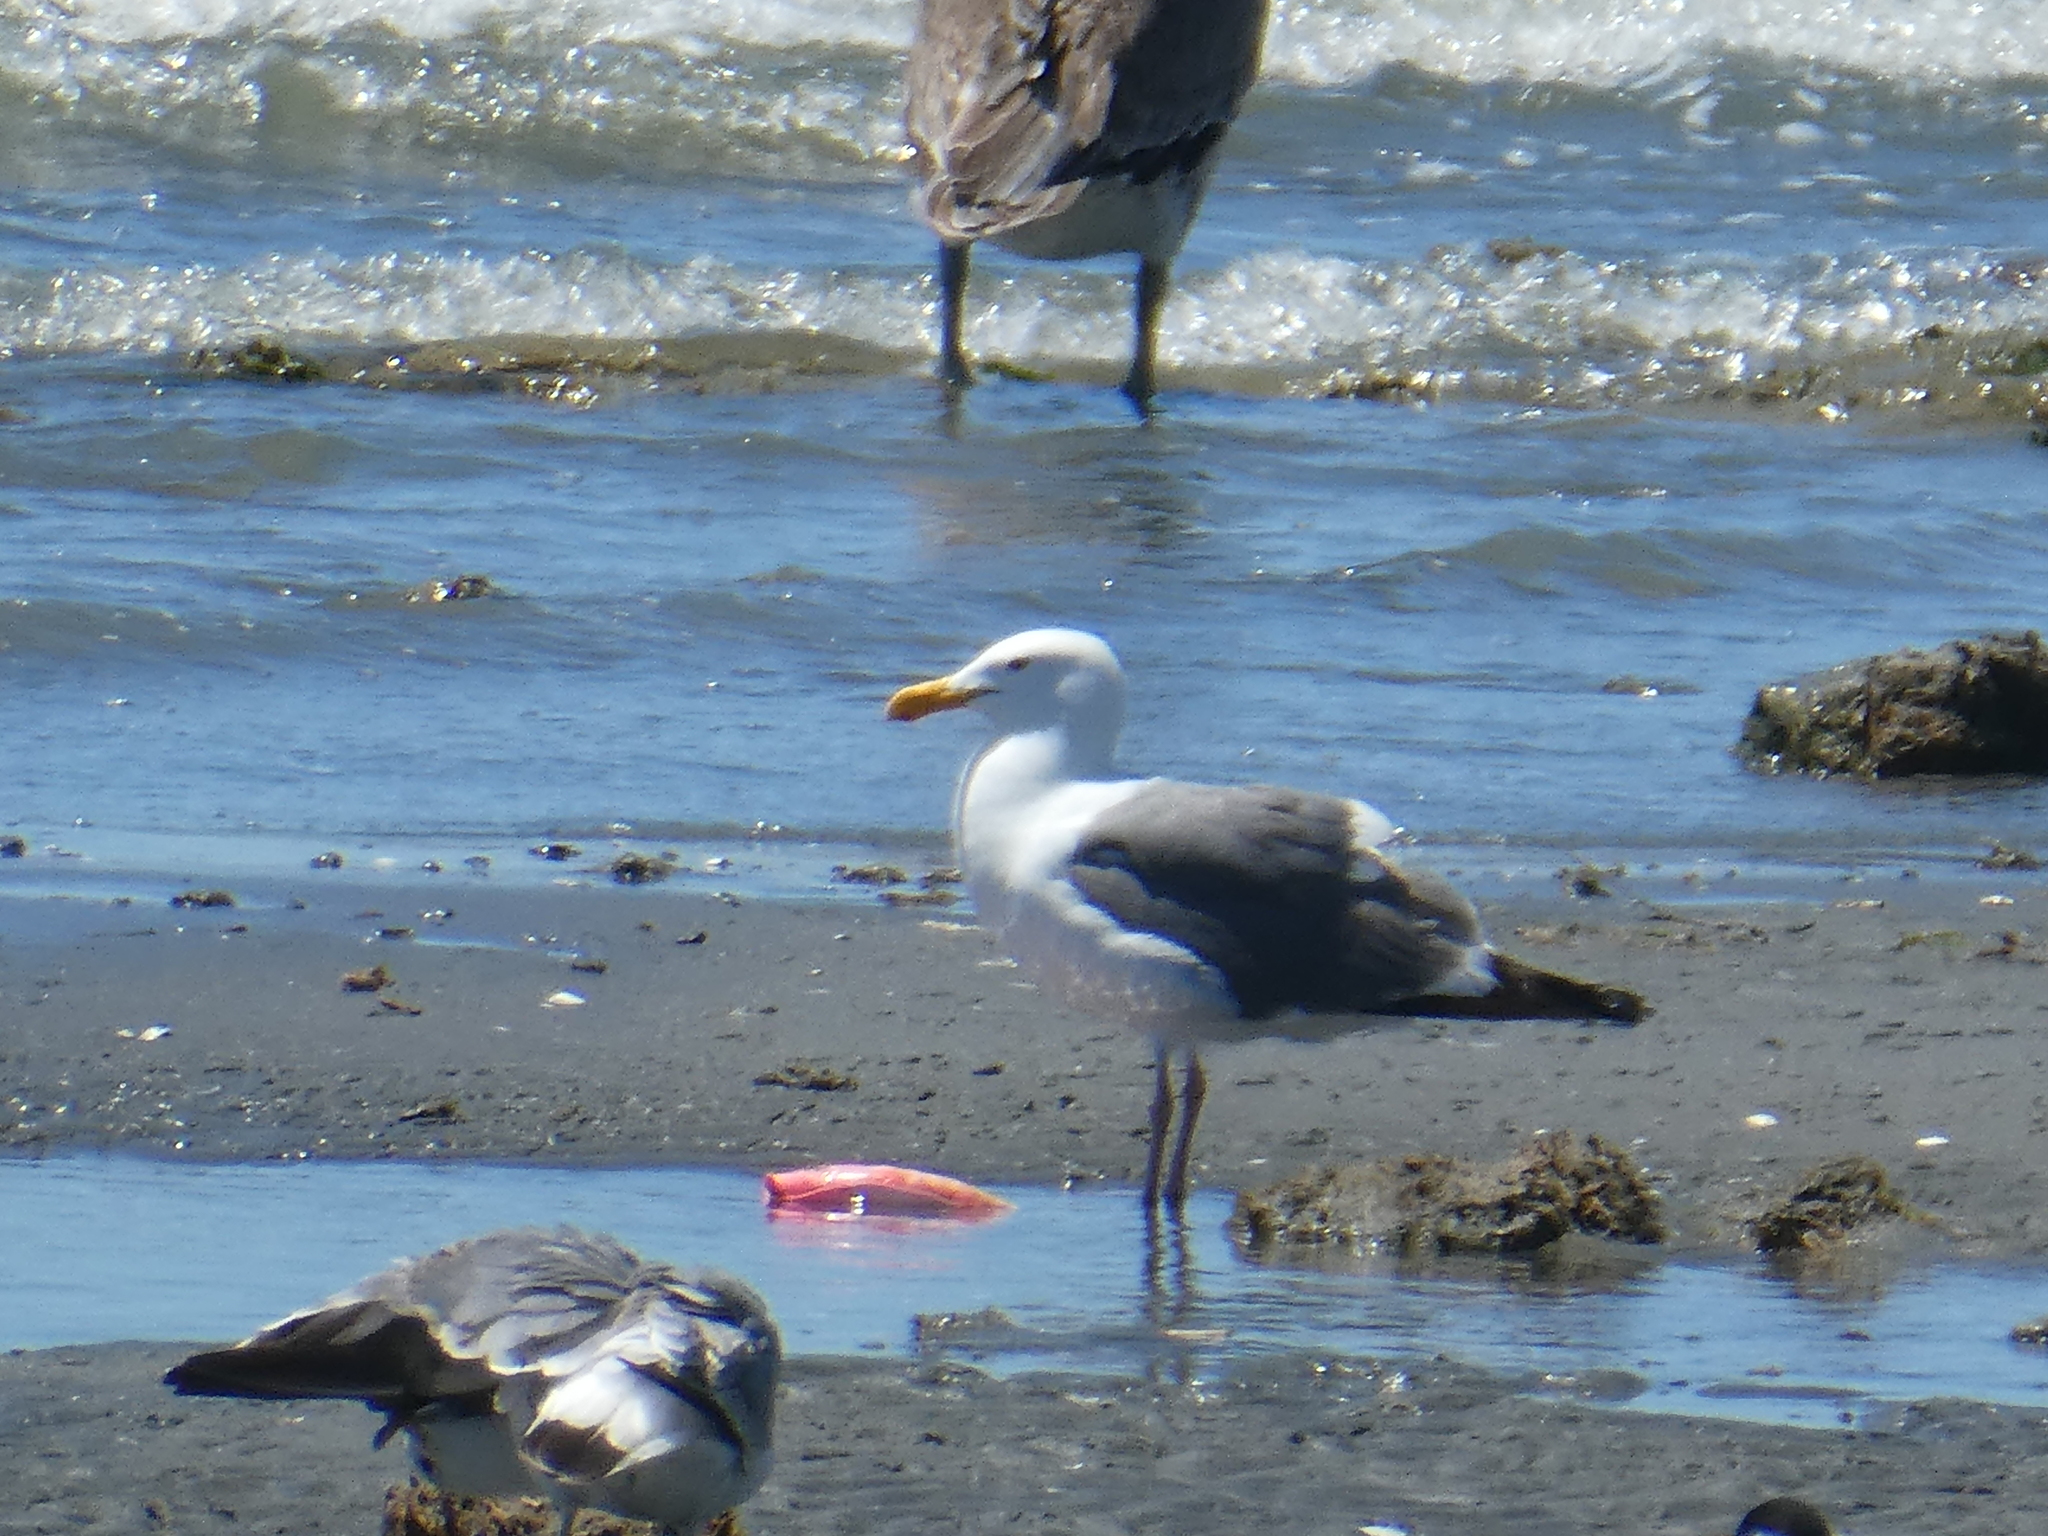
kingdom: Animalia
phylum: Chordata
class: Aves
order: Charadriiformes
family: Laridae
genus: Larus
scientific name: Larus occidentalis
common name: Western gull
